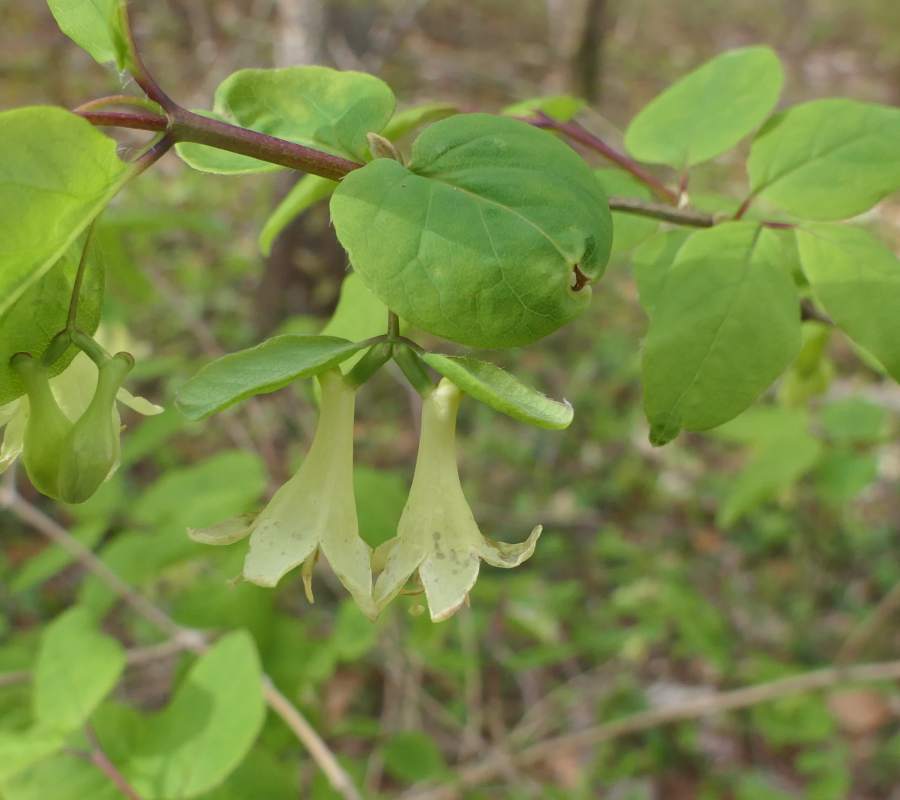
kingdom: Plantae
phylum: Tracheophyta
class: Magnoliopsida
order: Dipsacales
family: Caprifoliaceae
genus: Lonicera
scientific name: Lonicera canadensis
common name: American fly-honeysuckle
